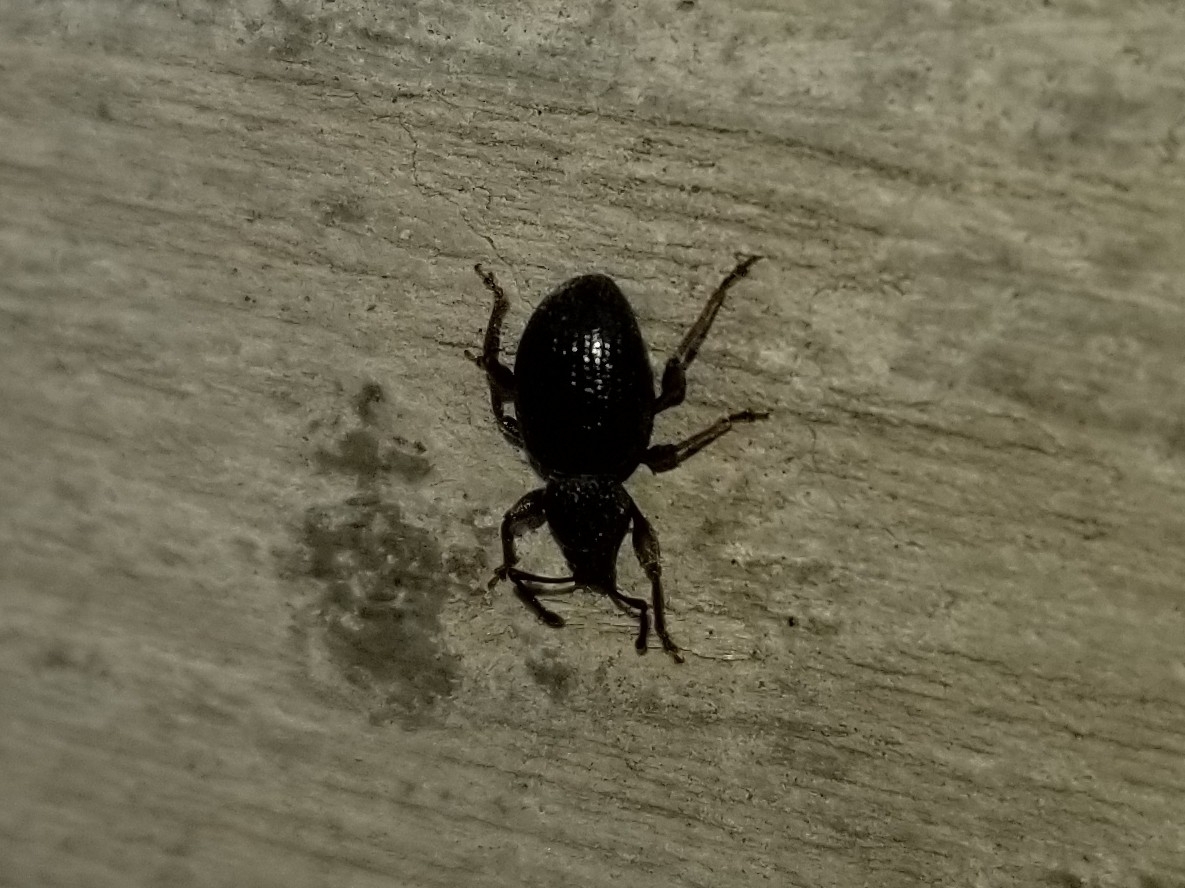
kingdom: Animalia
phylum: Arthropoda
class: Insecta
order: Coleoptera
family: Curculionidae
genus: Otiorhynchus
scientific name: Otiorhynchus ovatus
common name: Strawberry root weevil
